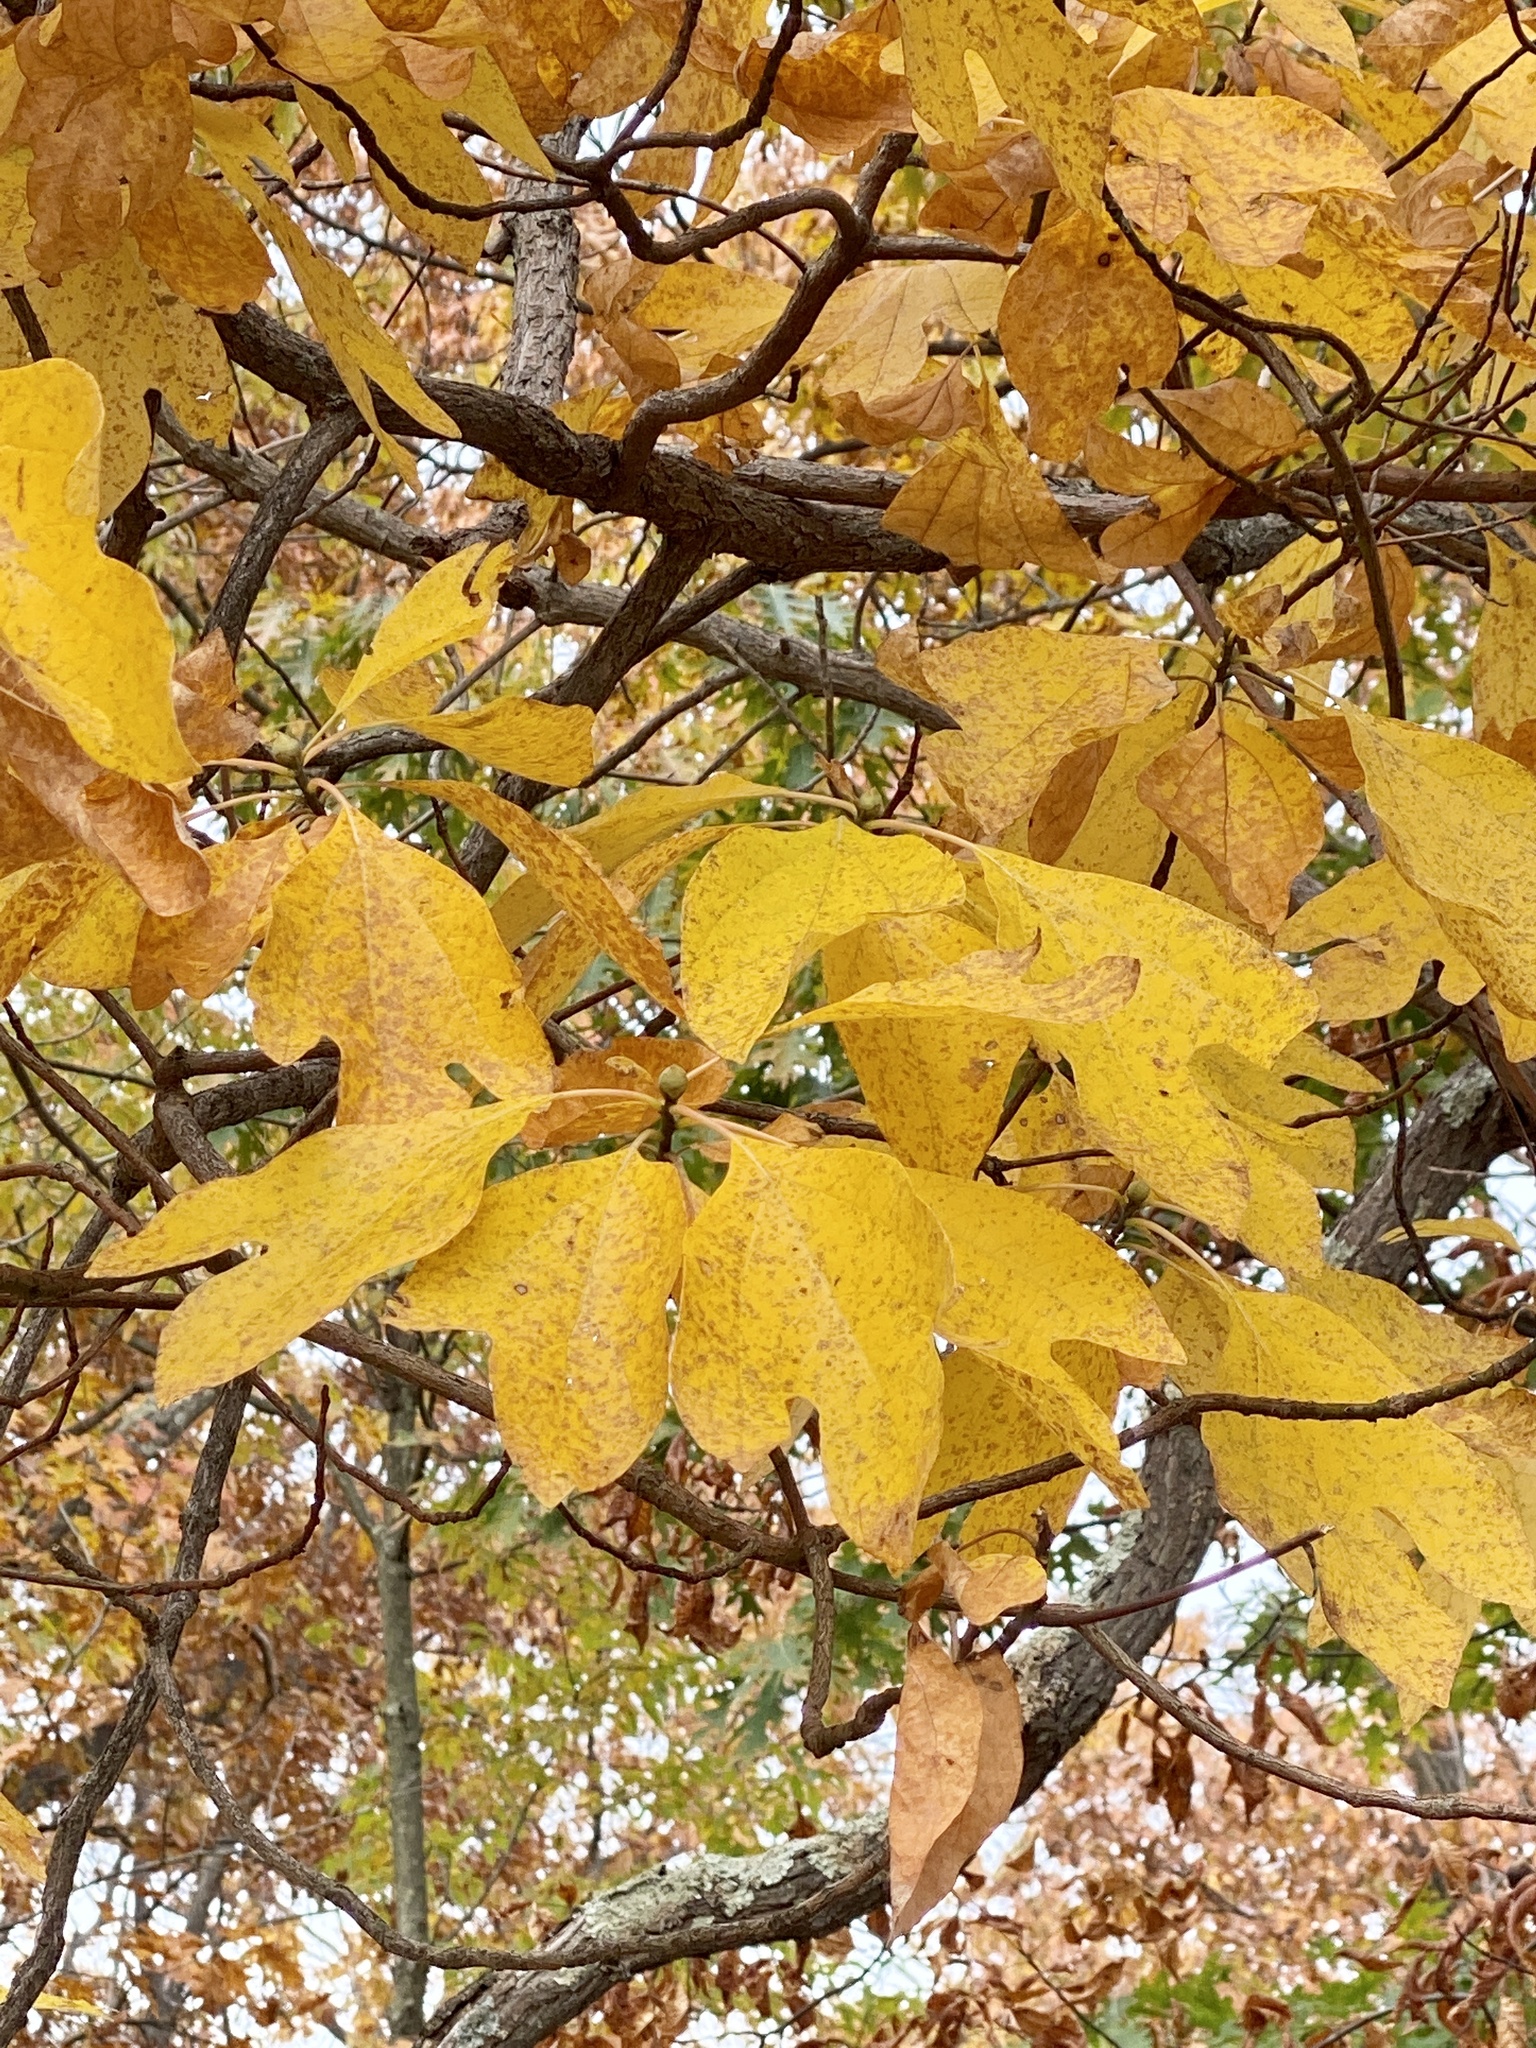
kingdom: Plantae
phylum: Tracheophyta
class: Magnoliopsida
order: Laurales
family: Lauraceae
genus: Sassafras
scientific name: Sassafras albidum
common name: Sassafras
